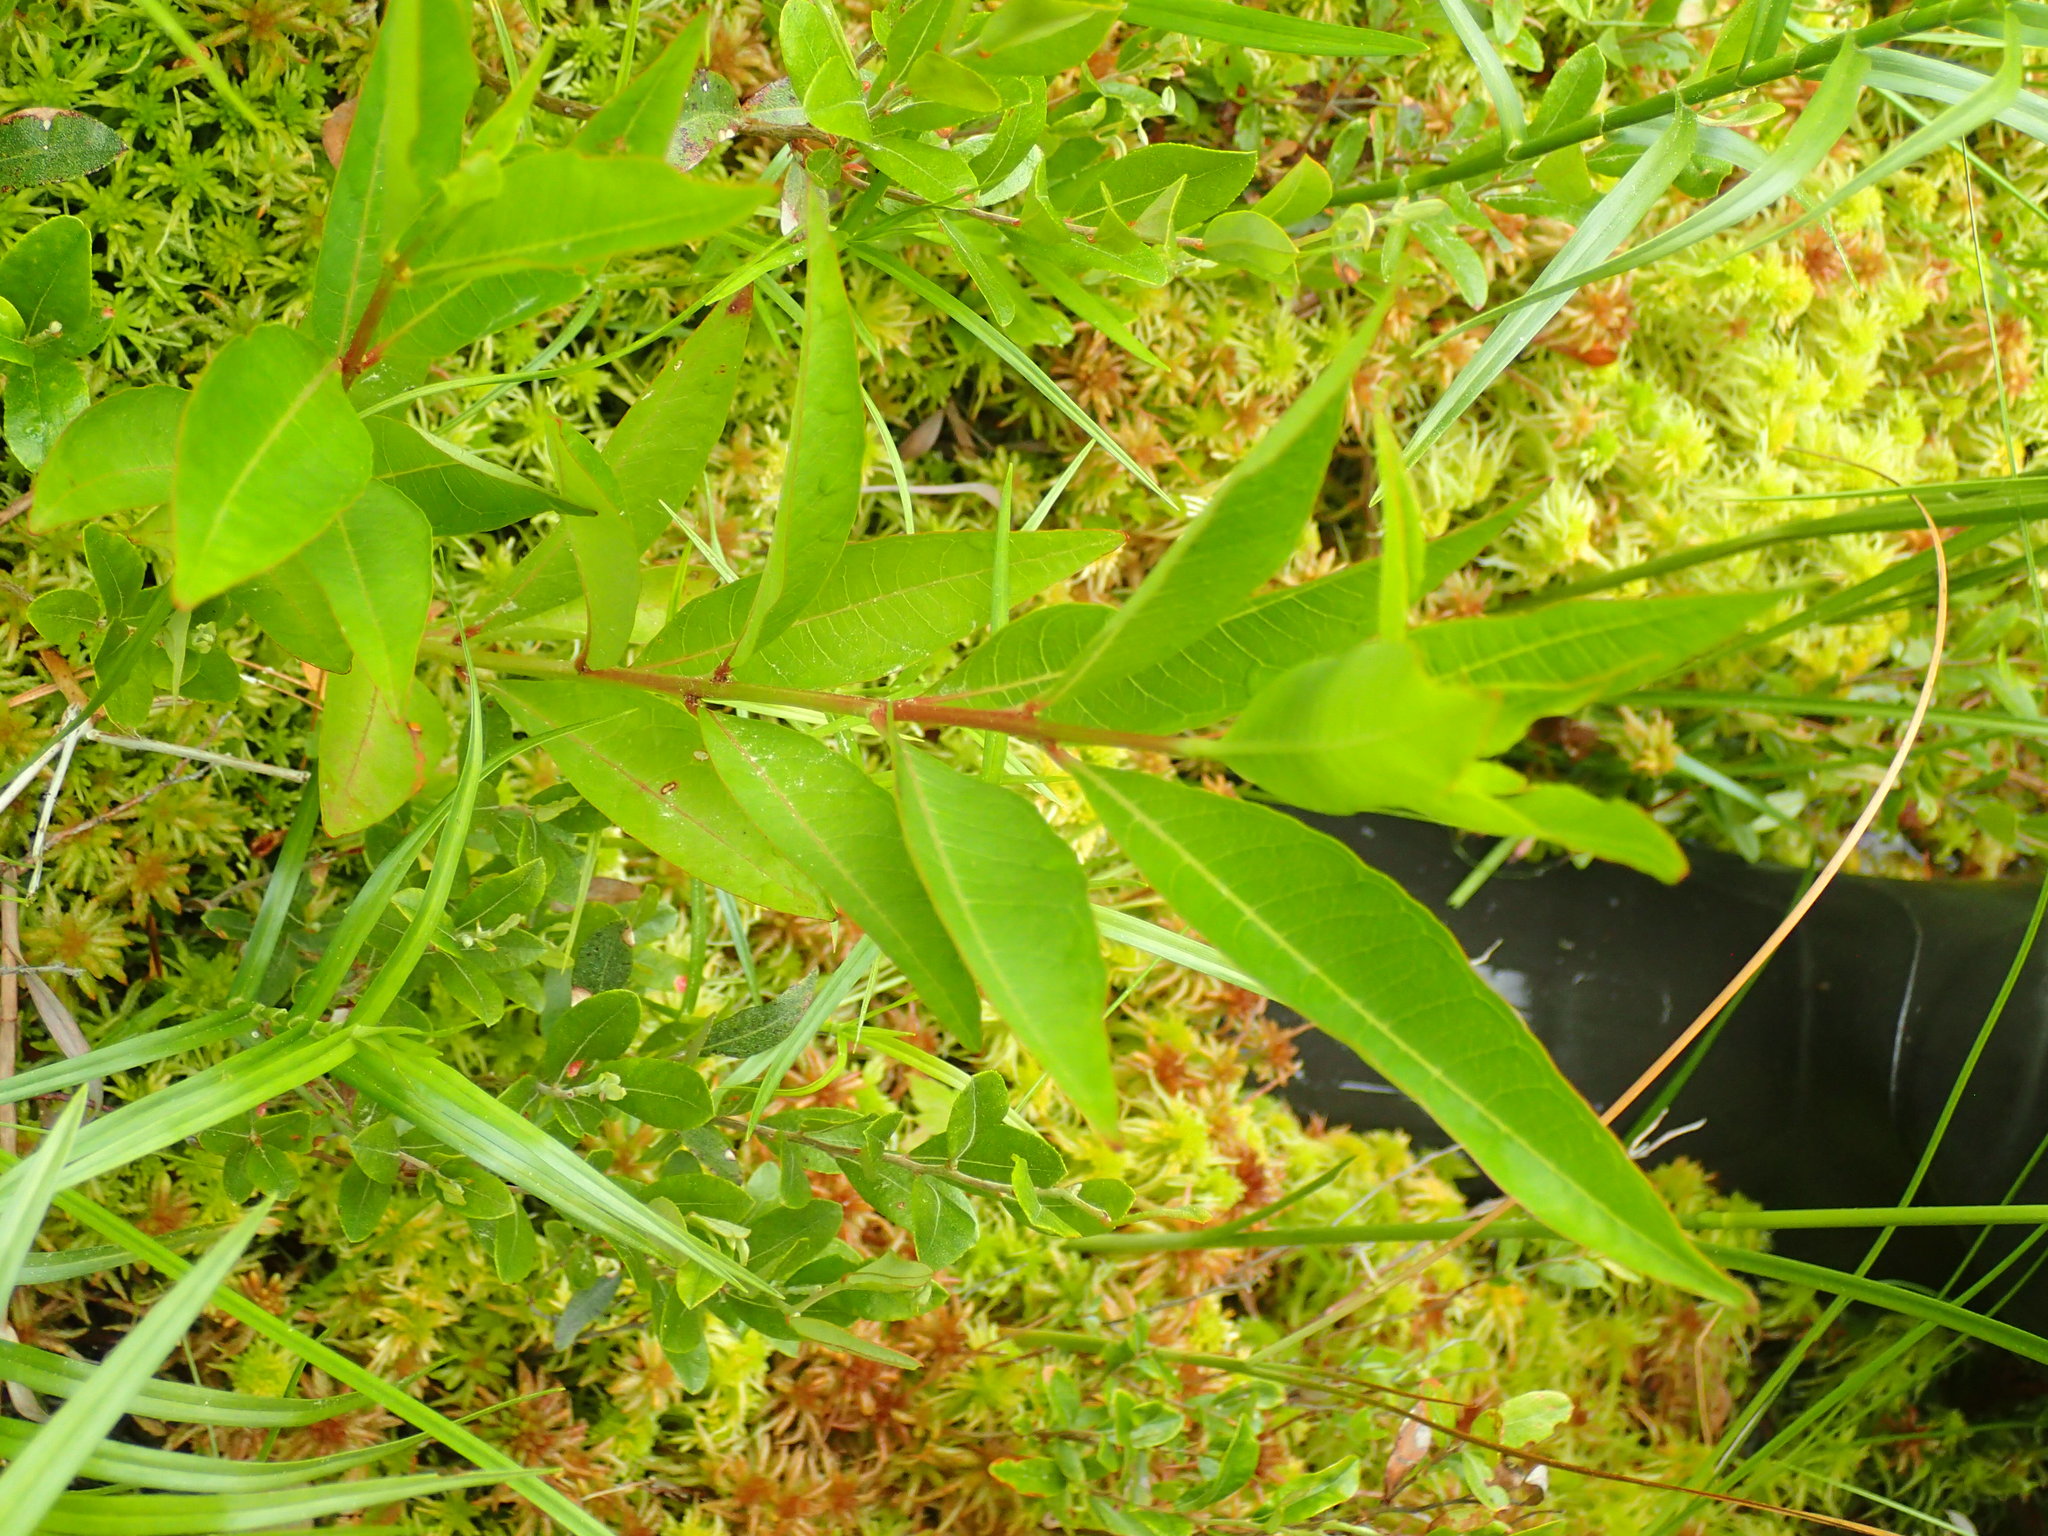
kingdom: Plantae
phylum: Tracheophyta
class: Magnoliopsida
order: Myrtales
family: Lythraceae
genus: Decodon
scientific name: Decodon verticillatus
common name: Hairy swamp loosestrife
